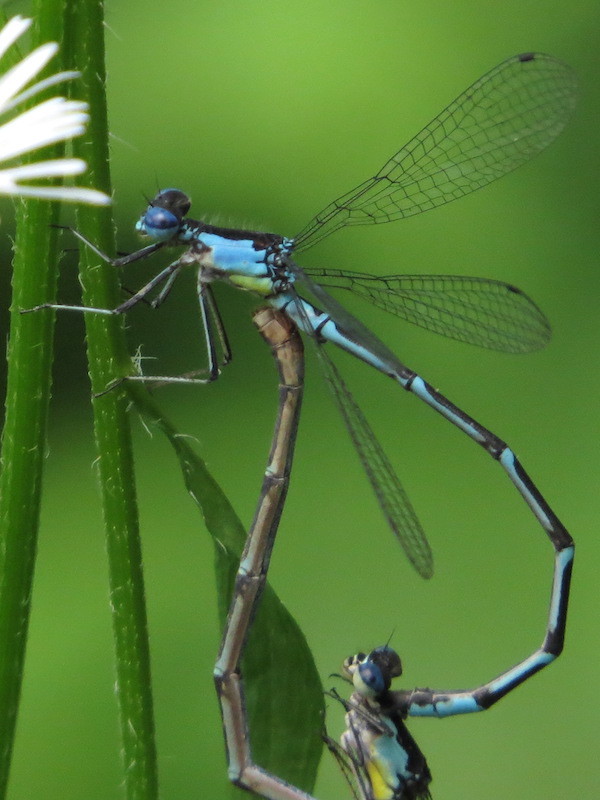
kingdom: Animalia
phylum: Arthropoda
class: Insecta
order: Odonata
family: Coenagrionidae
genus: Chromagrion
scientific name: Chromagrion conditum
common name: Aurora damsel
